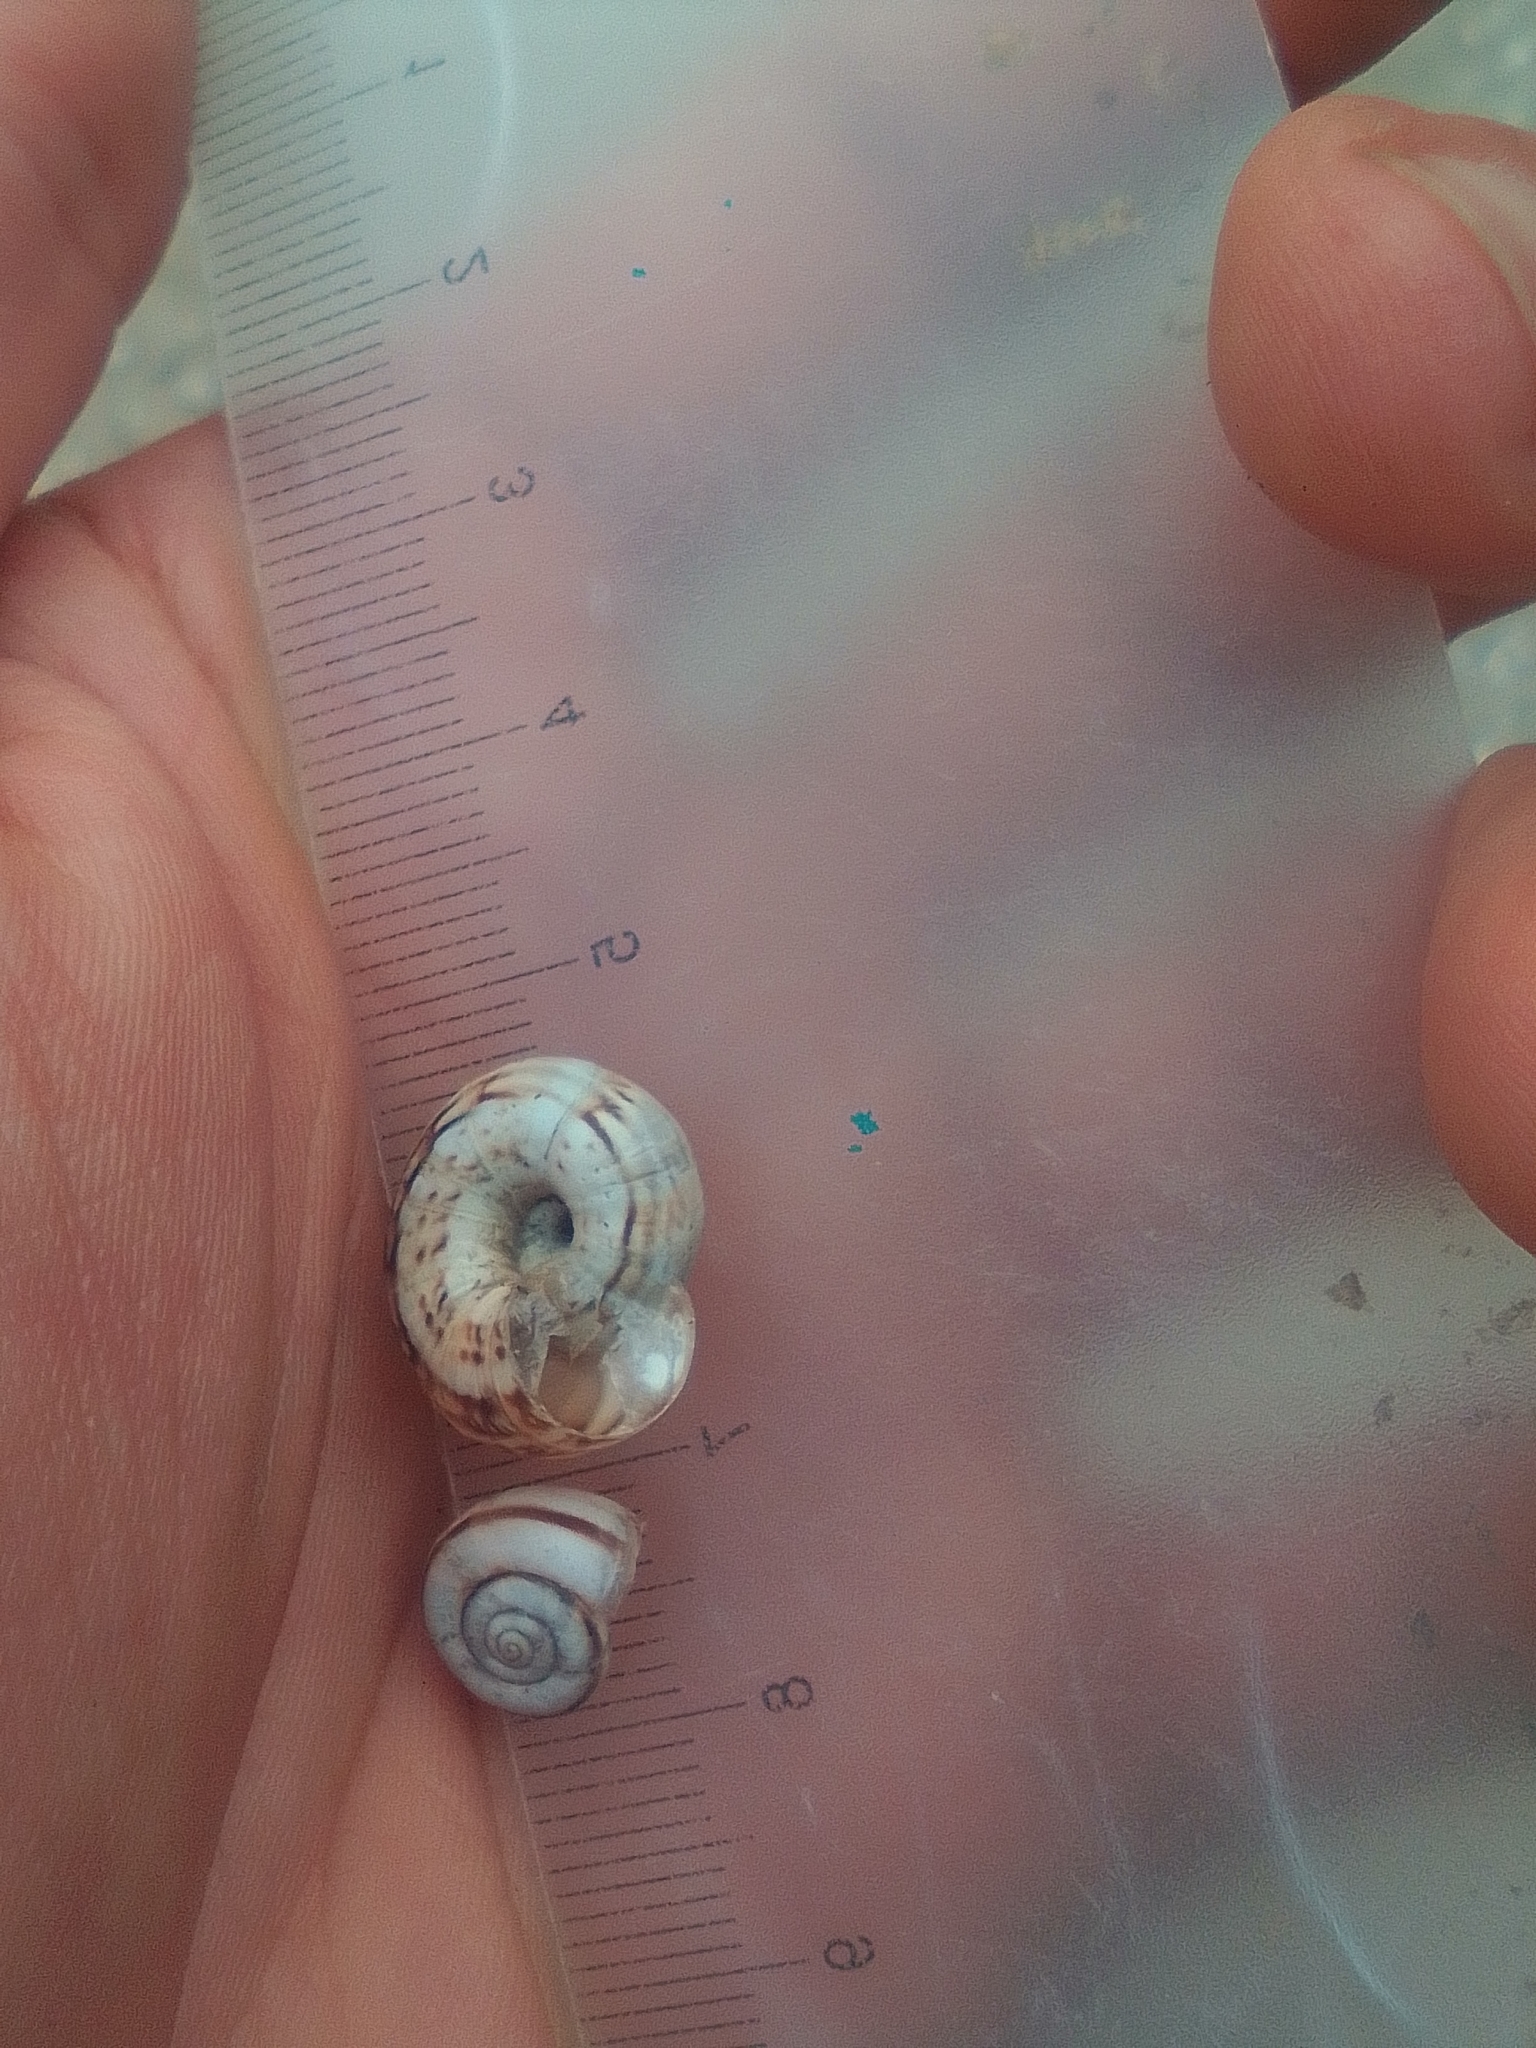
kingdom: Animalia
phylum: Mollusca
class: Gastropoda
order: Stylommatophora
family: Geomitridae
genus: Xeropicta
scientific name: Xeropicta derbentina
